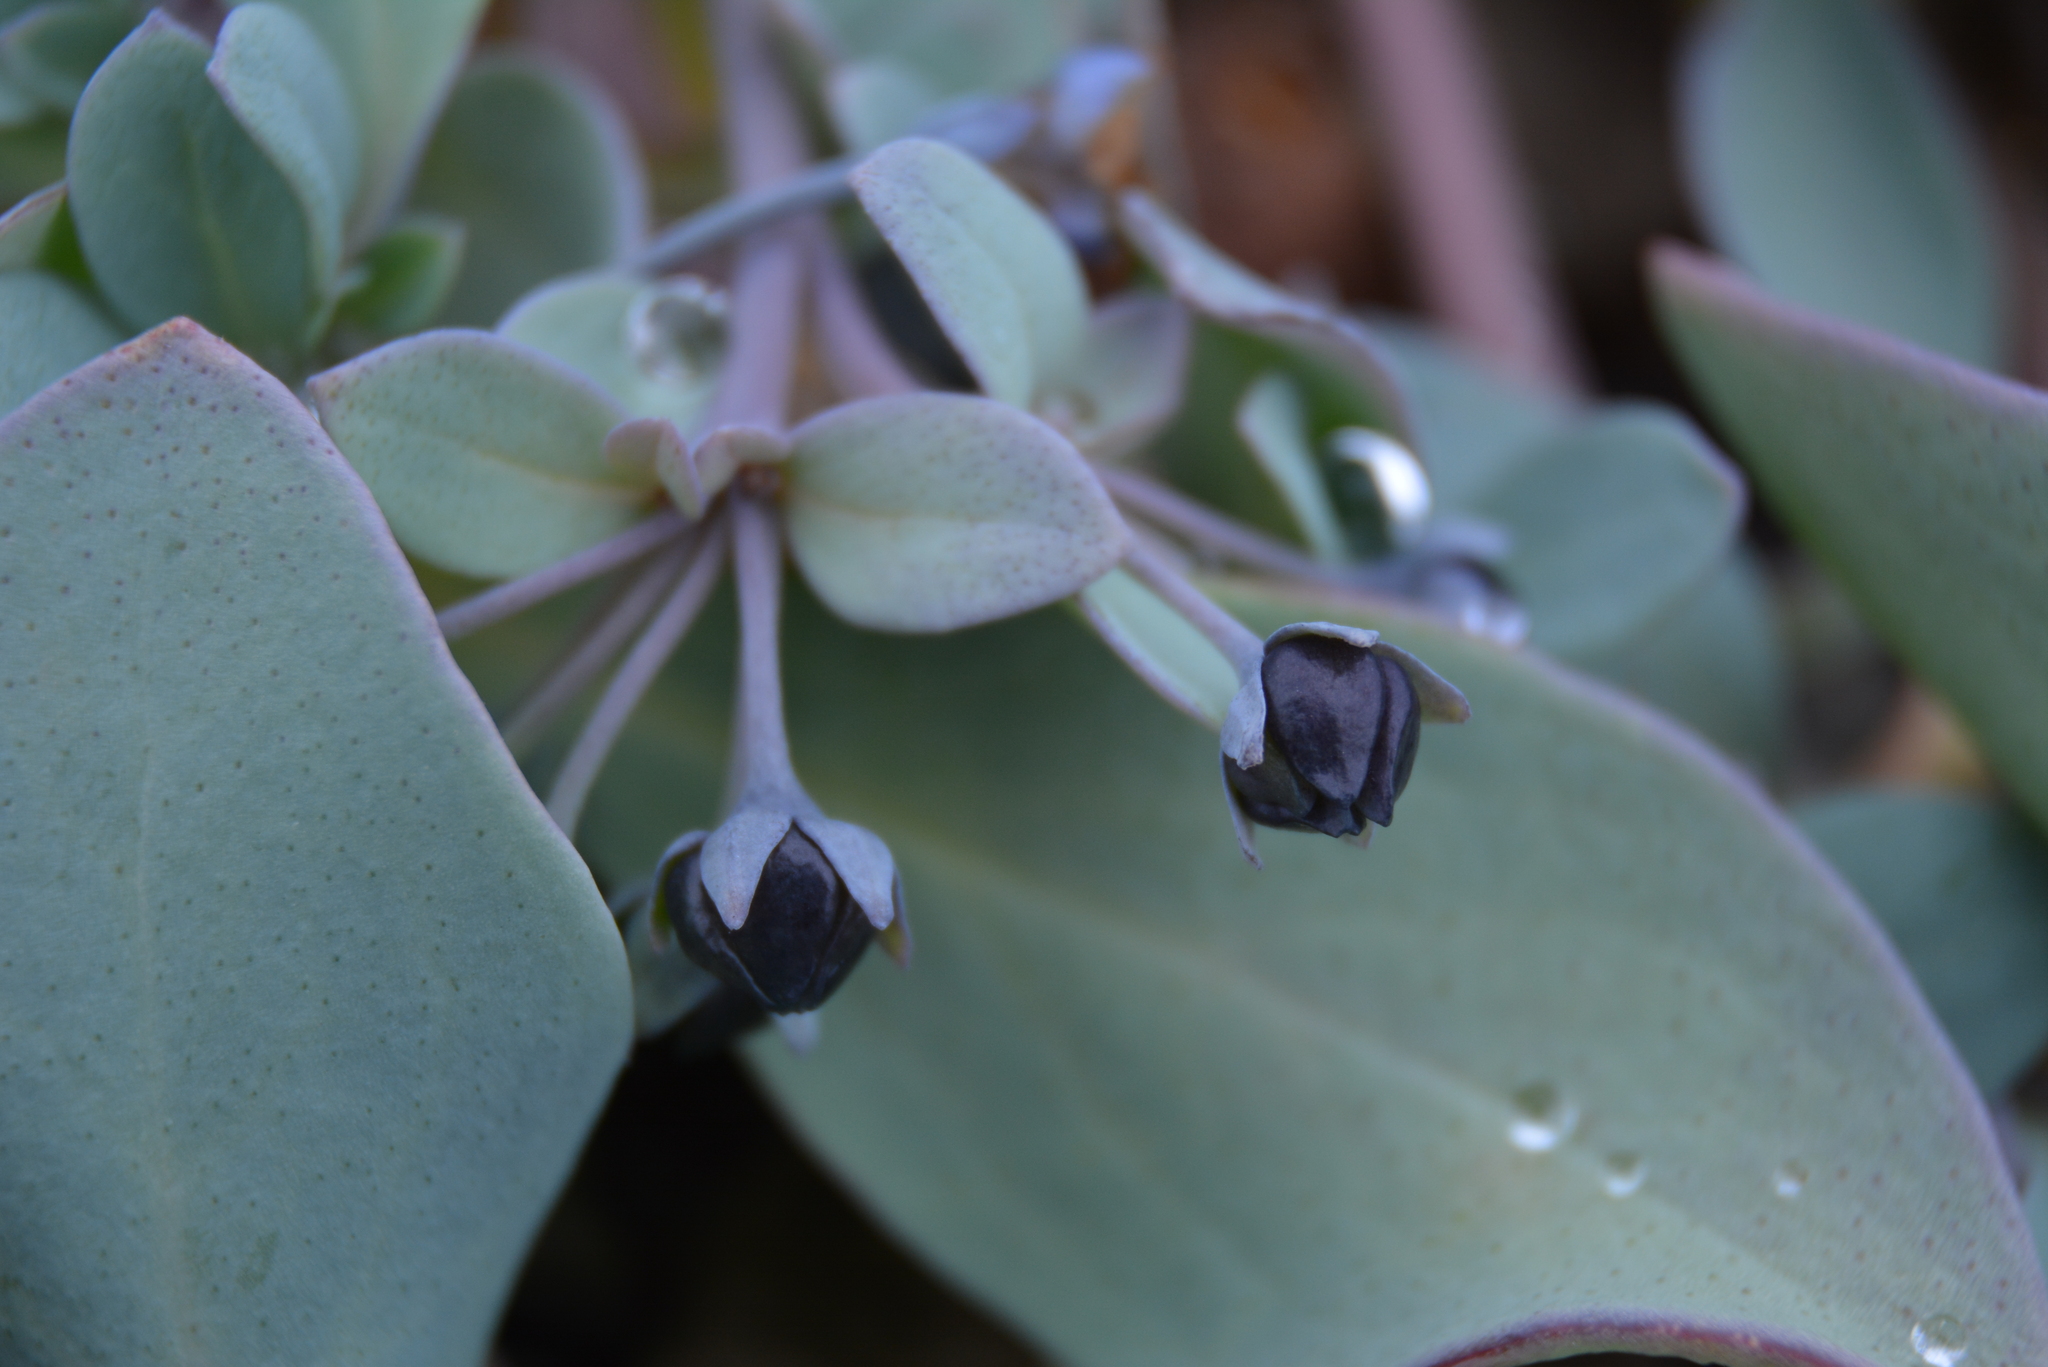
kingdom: Plantae
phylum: Tracheophyta
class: Magnoliopsida
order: Boraginales
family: Boraginaceae
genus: Mertensia
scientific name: Mertensia maritima
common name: Oysterplant
